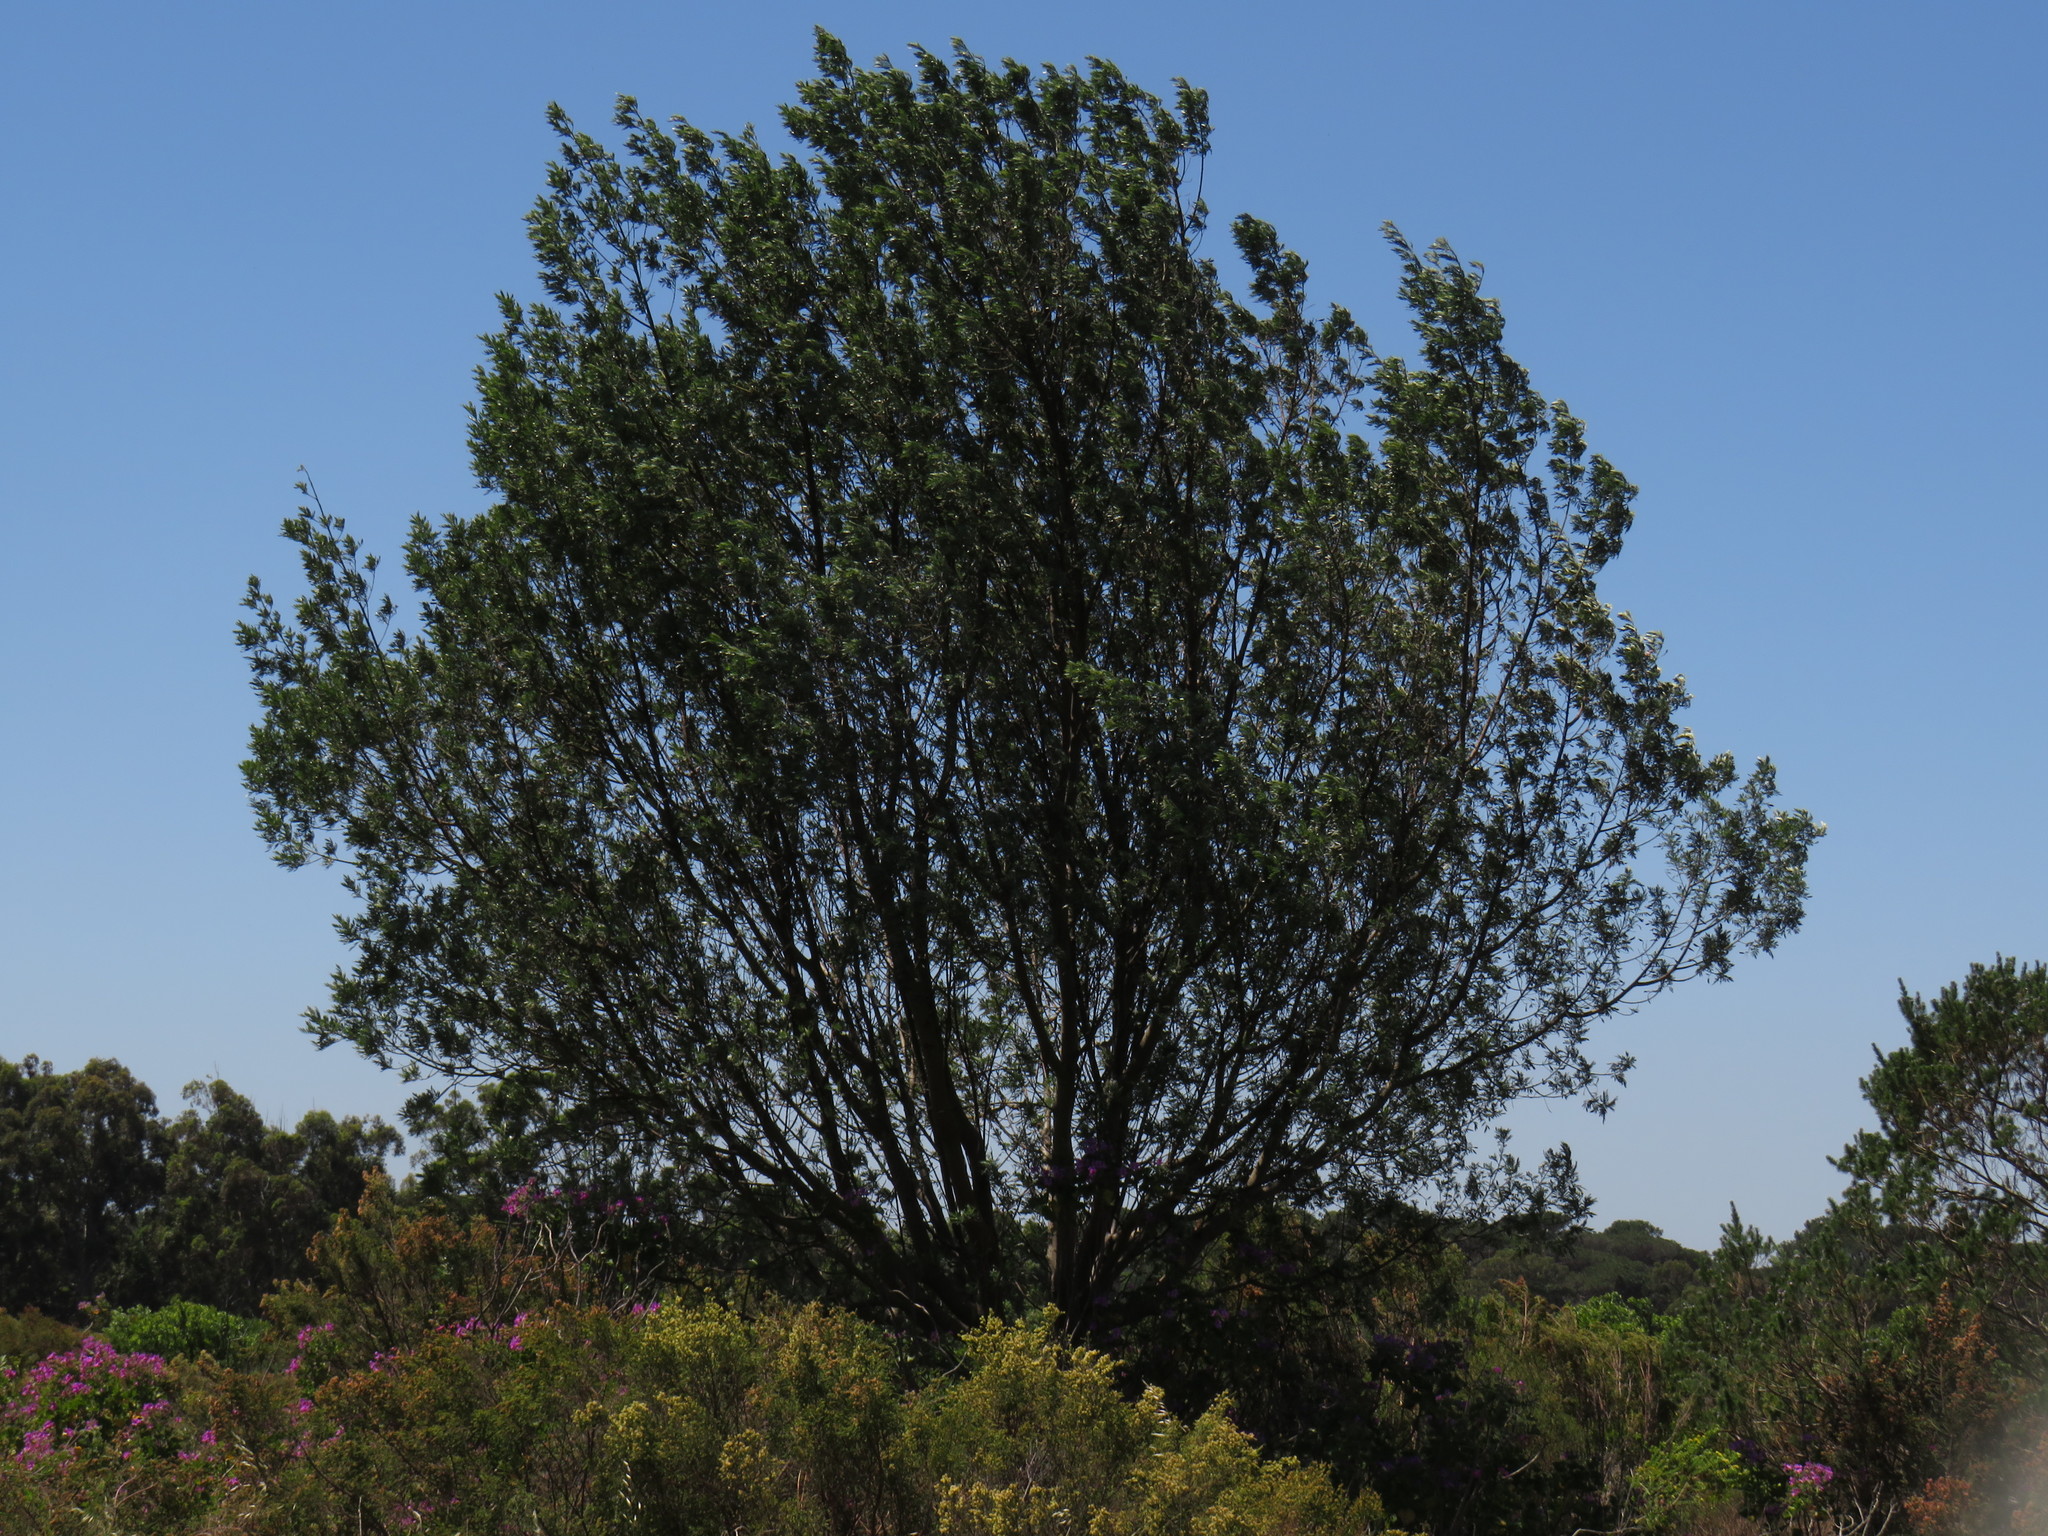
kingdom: Plantae
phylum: Tracheophyta
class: Magnoliopsida
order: Fabales
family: Fabaceae
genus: Virgilia
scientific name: Virgilia oroboides
